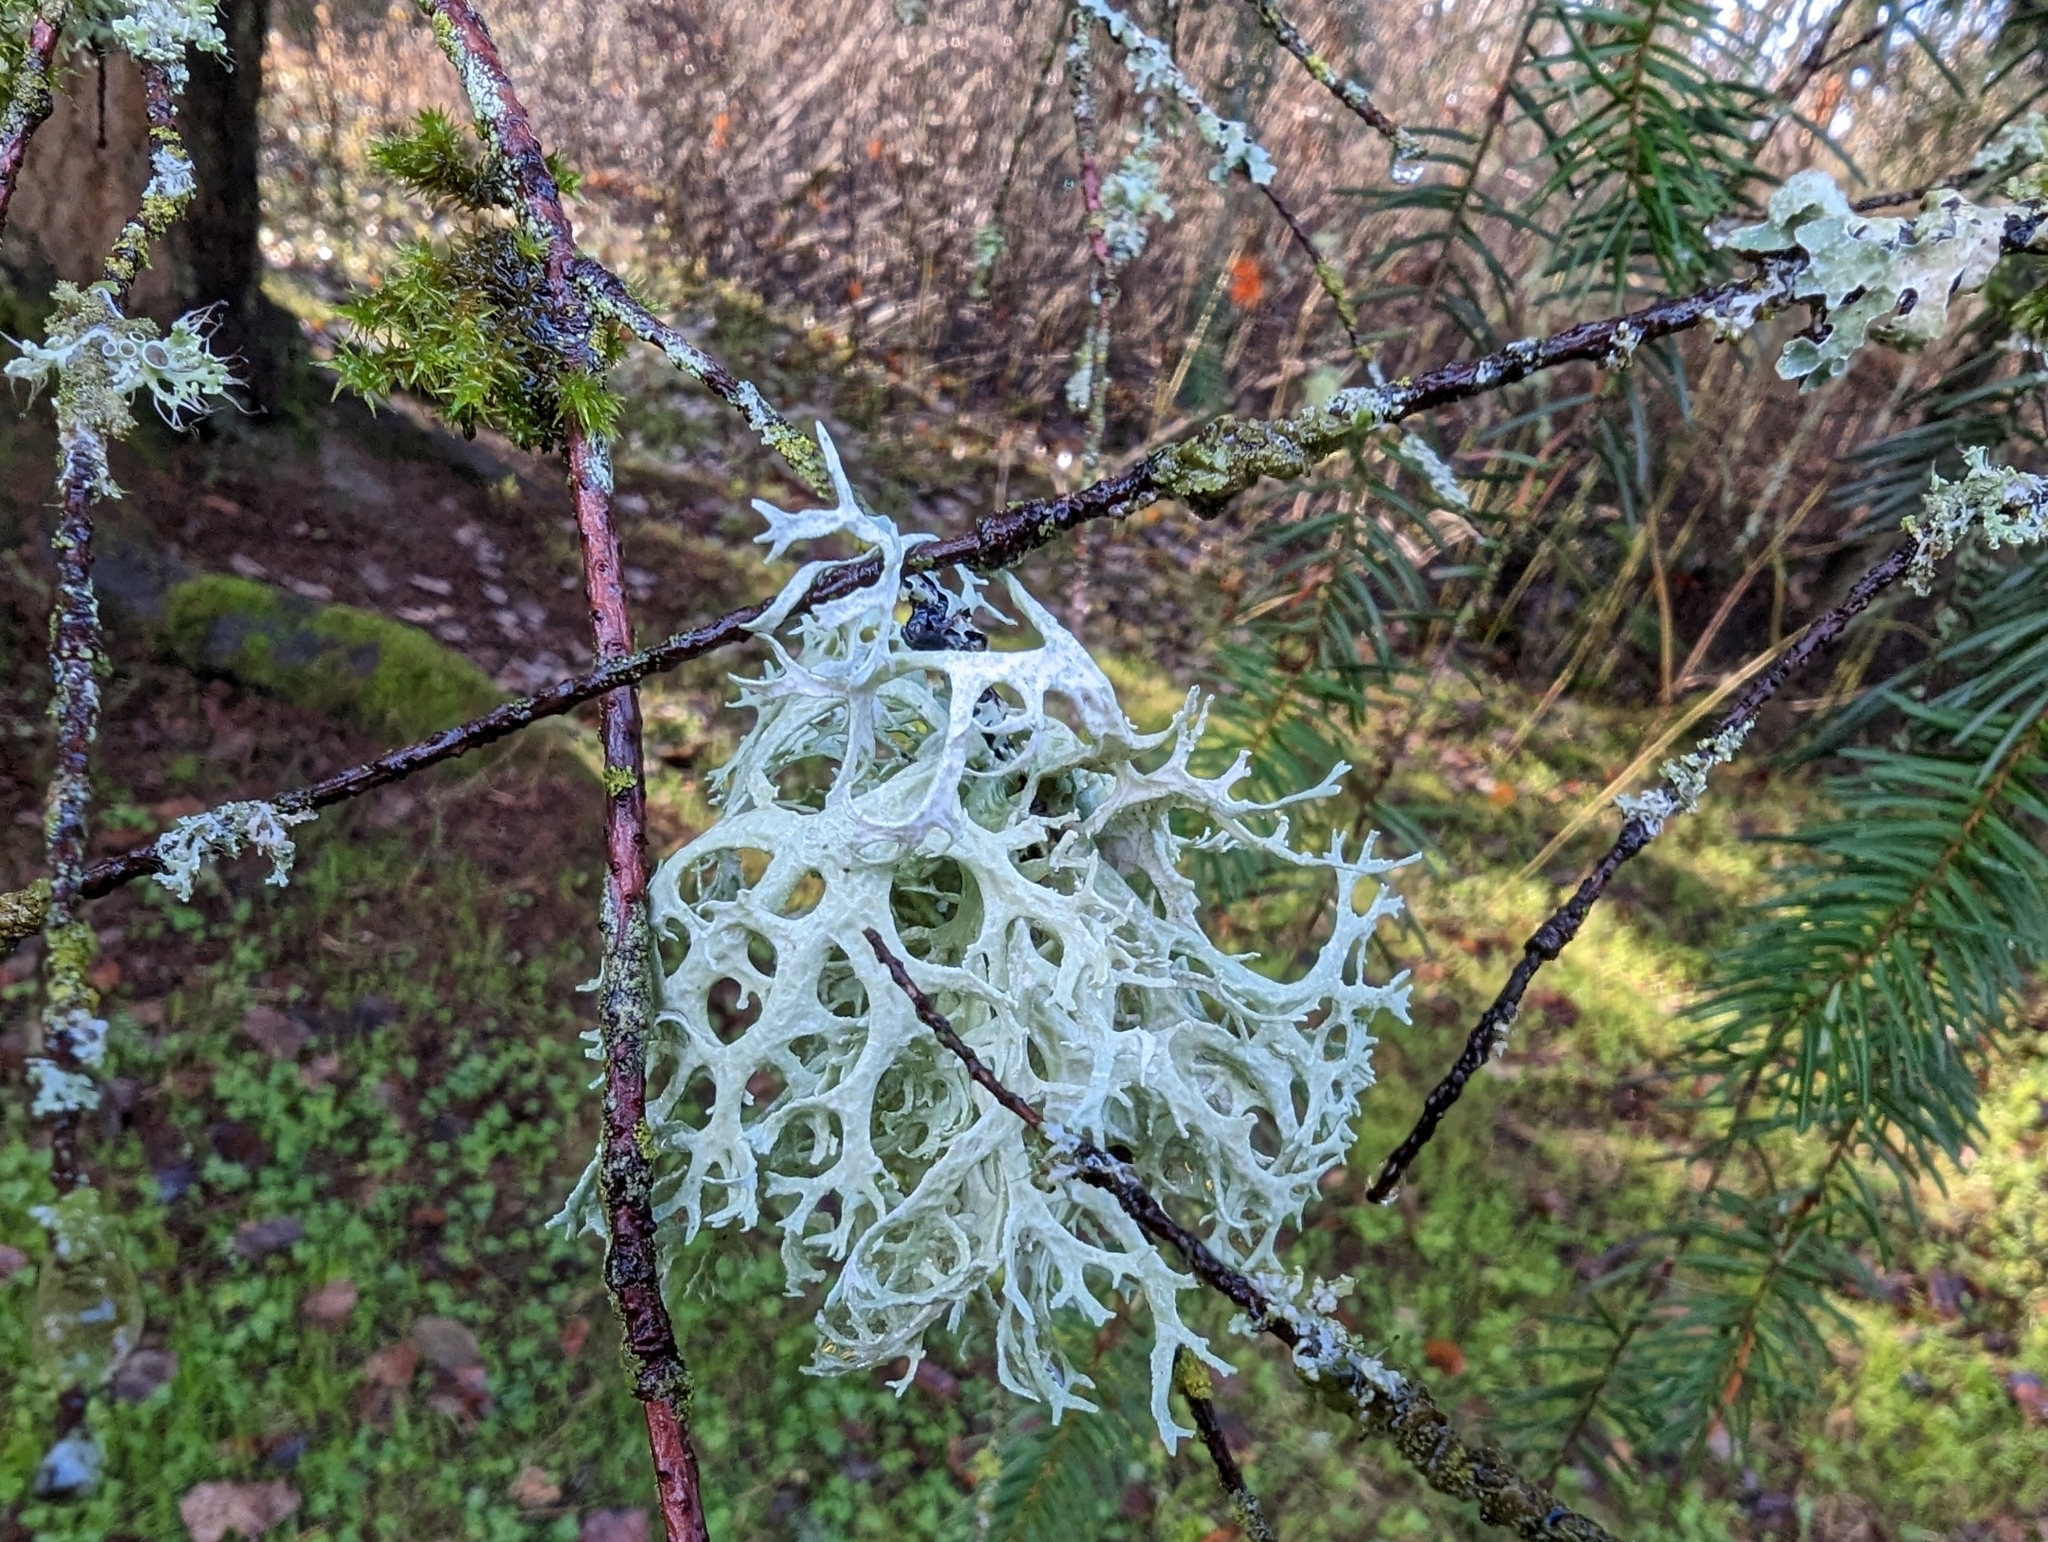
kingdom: Fungi
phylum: Ascomycota
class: Lecanoromycetes
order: Lecanorales
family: Parmeliaceae
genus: Evernia
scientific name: Evernia prunastri
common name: Oak moss
